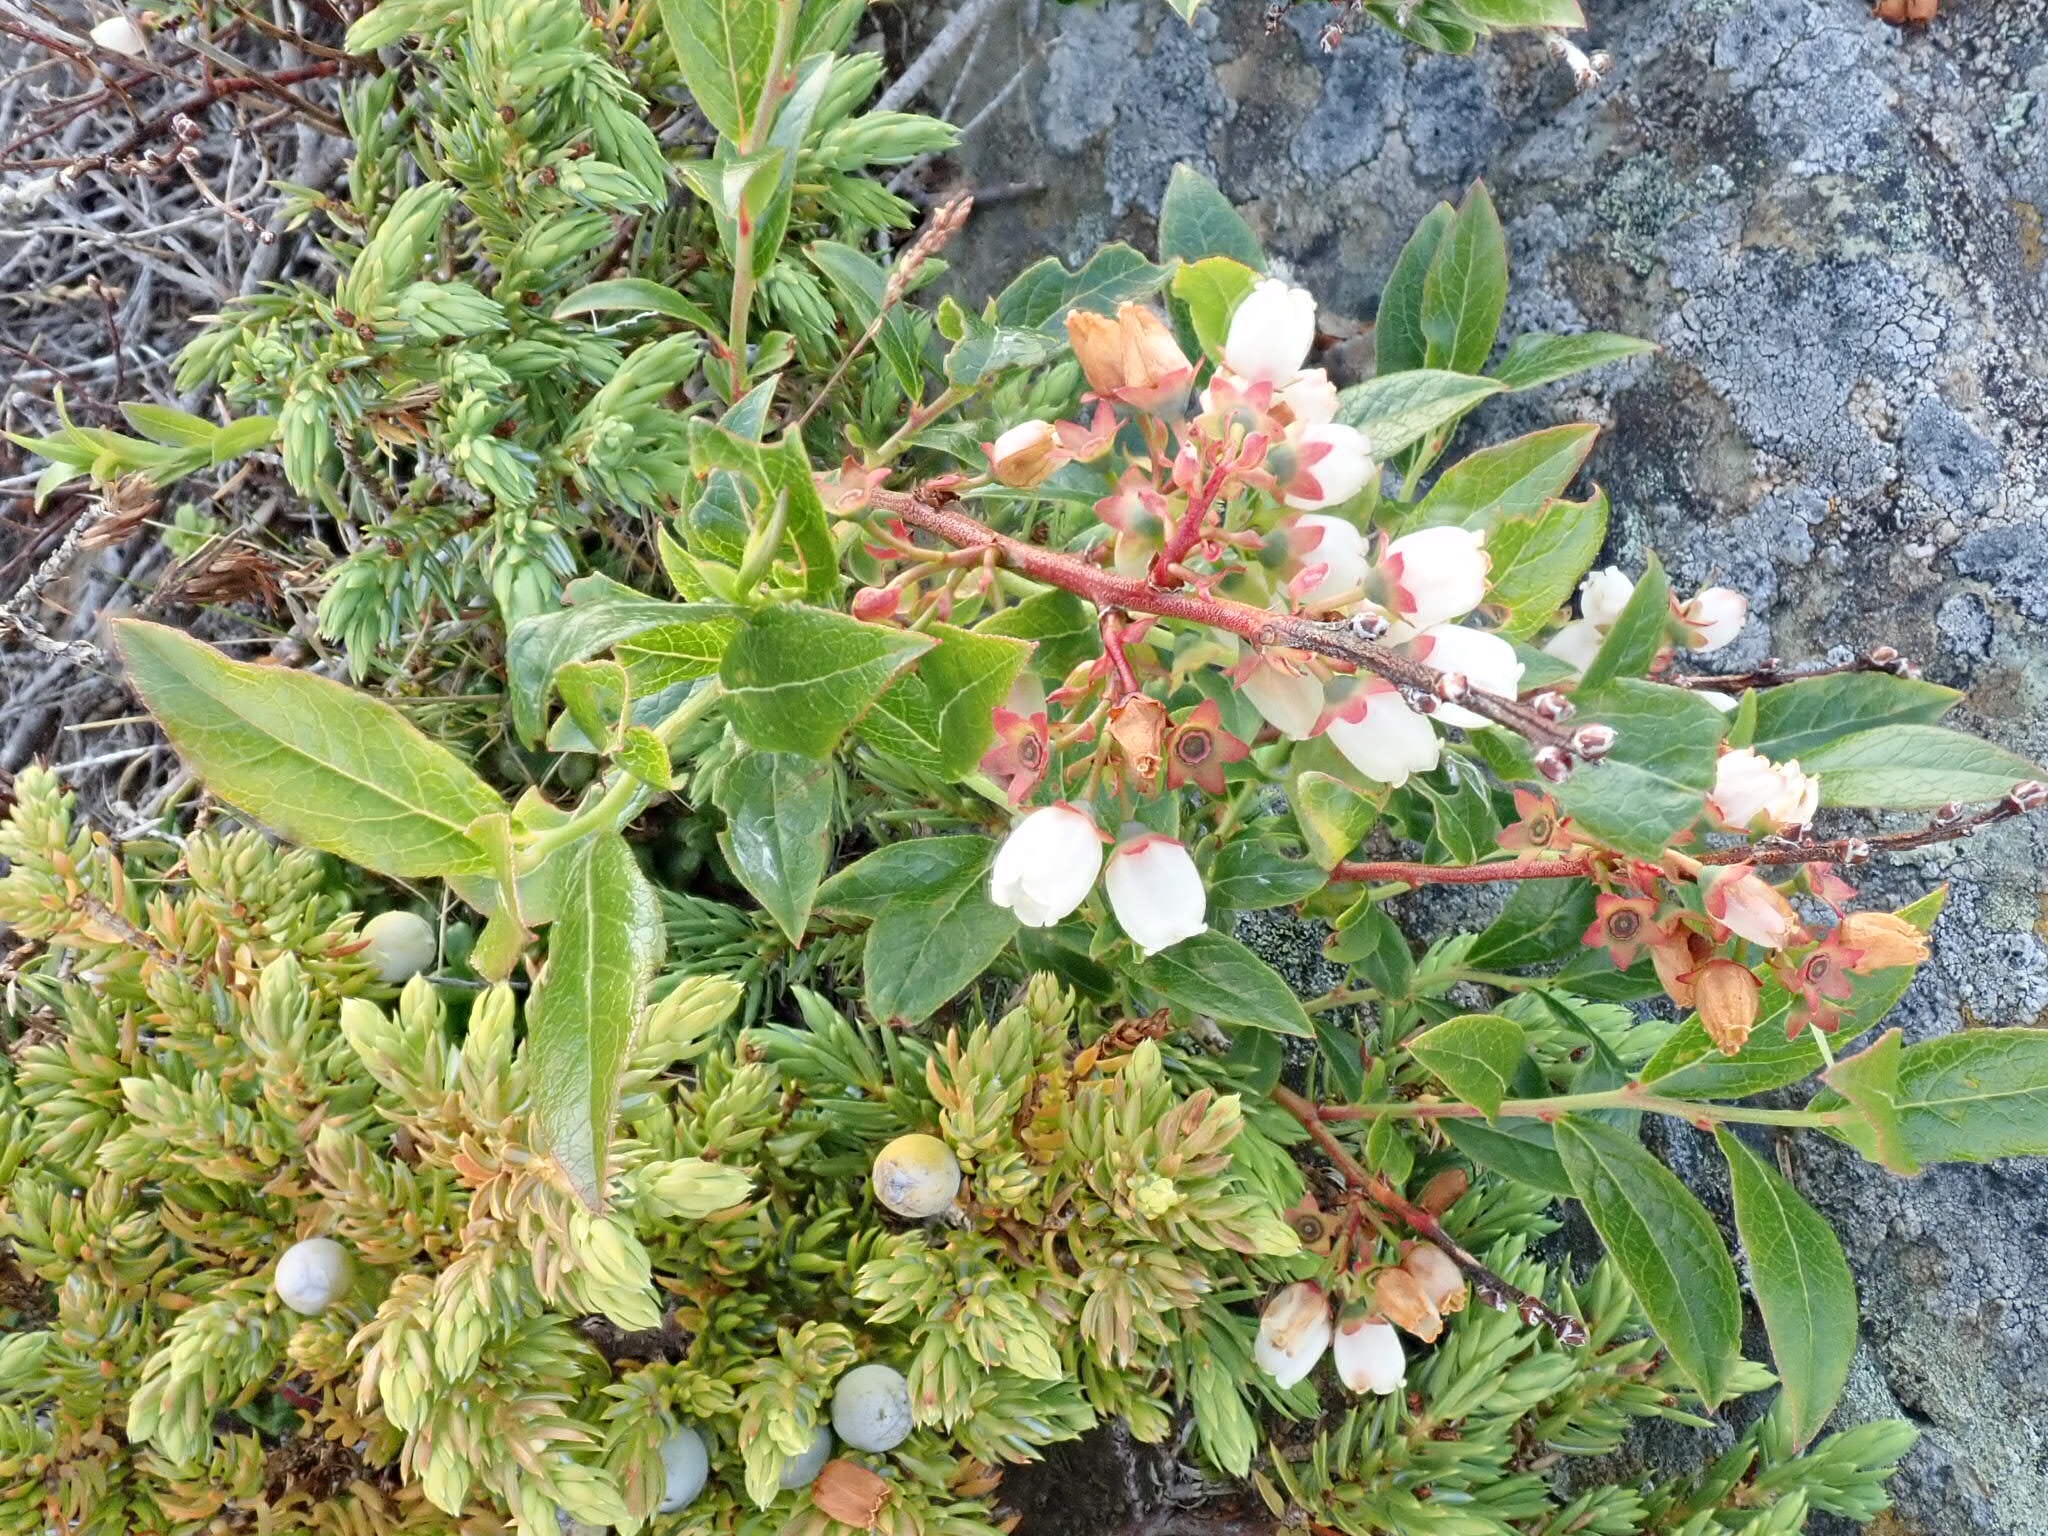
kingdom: Plantae
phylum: Tracheophyta
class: Magnoliopsida
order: Ericales
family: Ericaceae
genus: Vaccinium
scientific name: Vaccinium angustifolium
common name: Early lowbush blueberry
